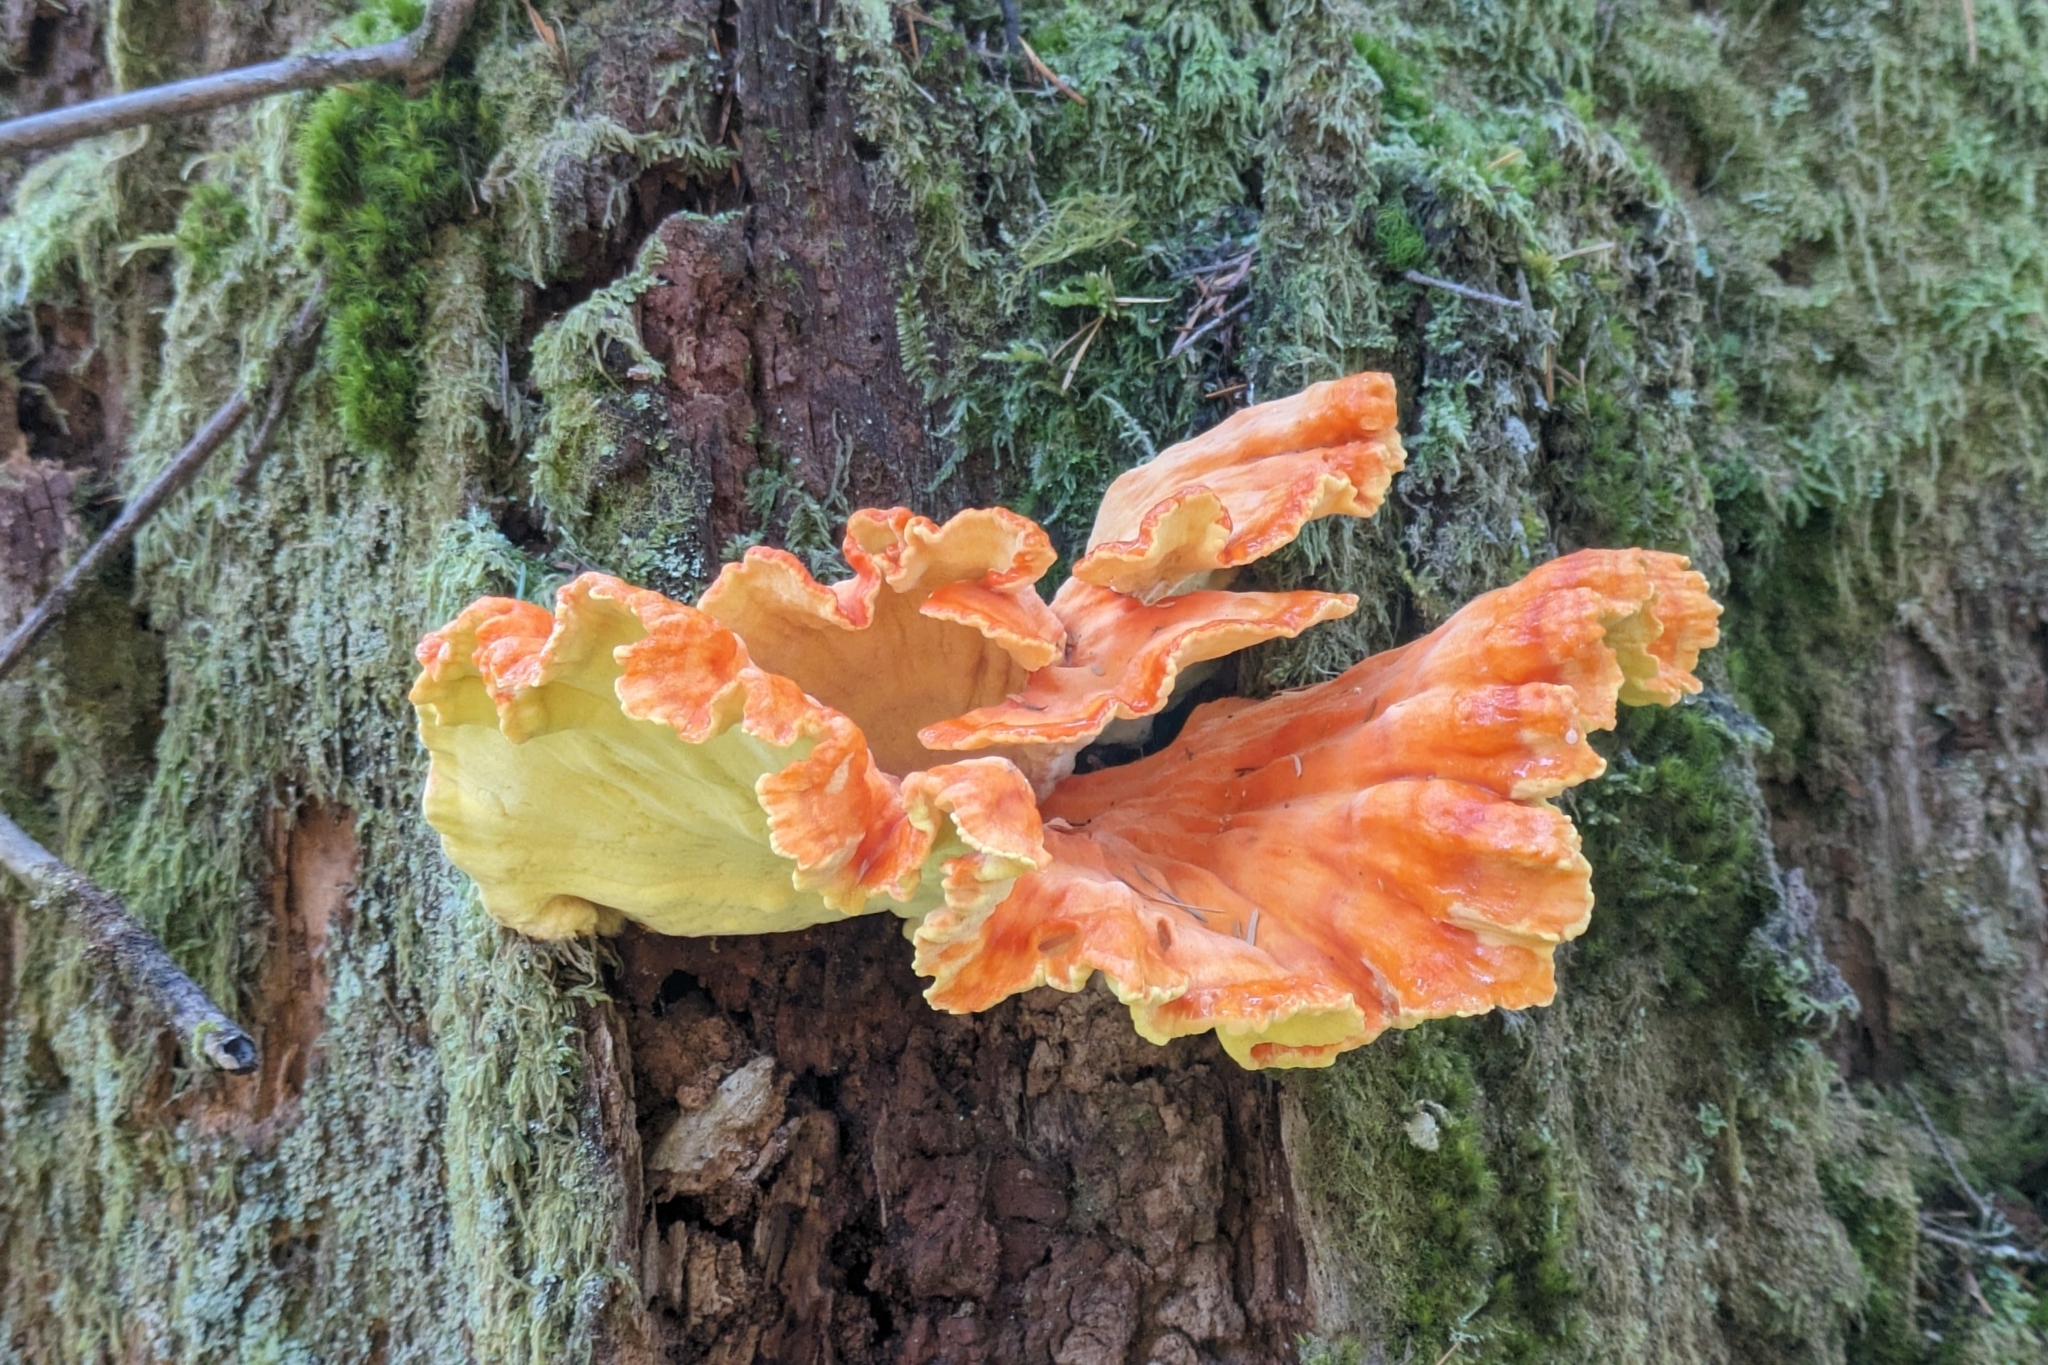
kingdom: Fungi
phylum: Basidiomycota
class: Agaricomycetes
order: Polyporales
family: Laetiporaceae
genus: Laetiporus
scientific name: Laetiporus conifericola
